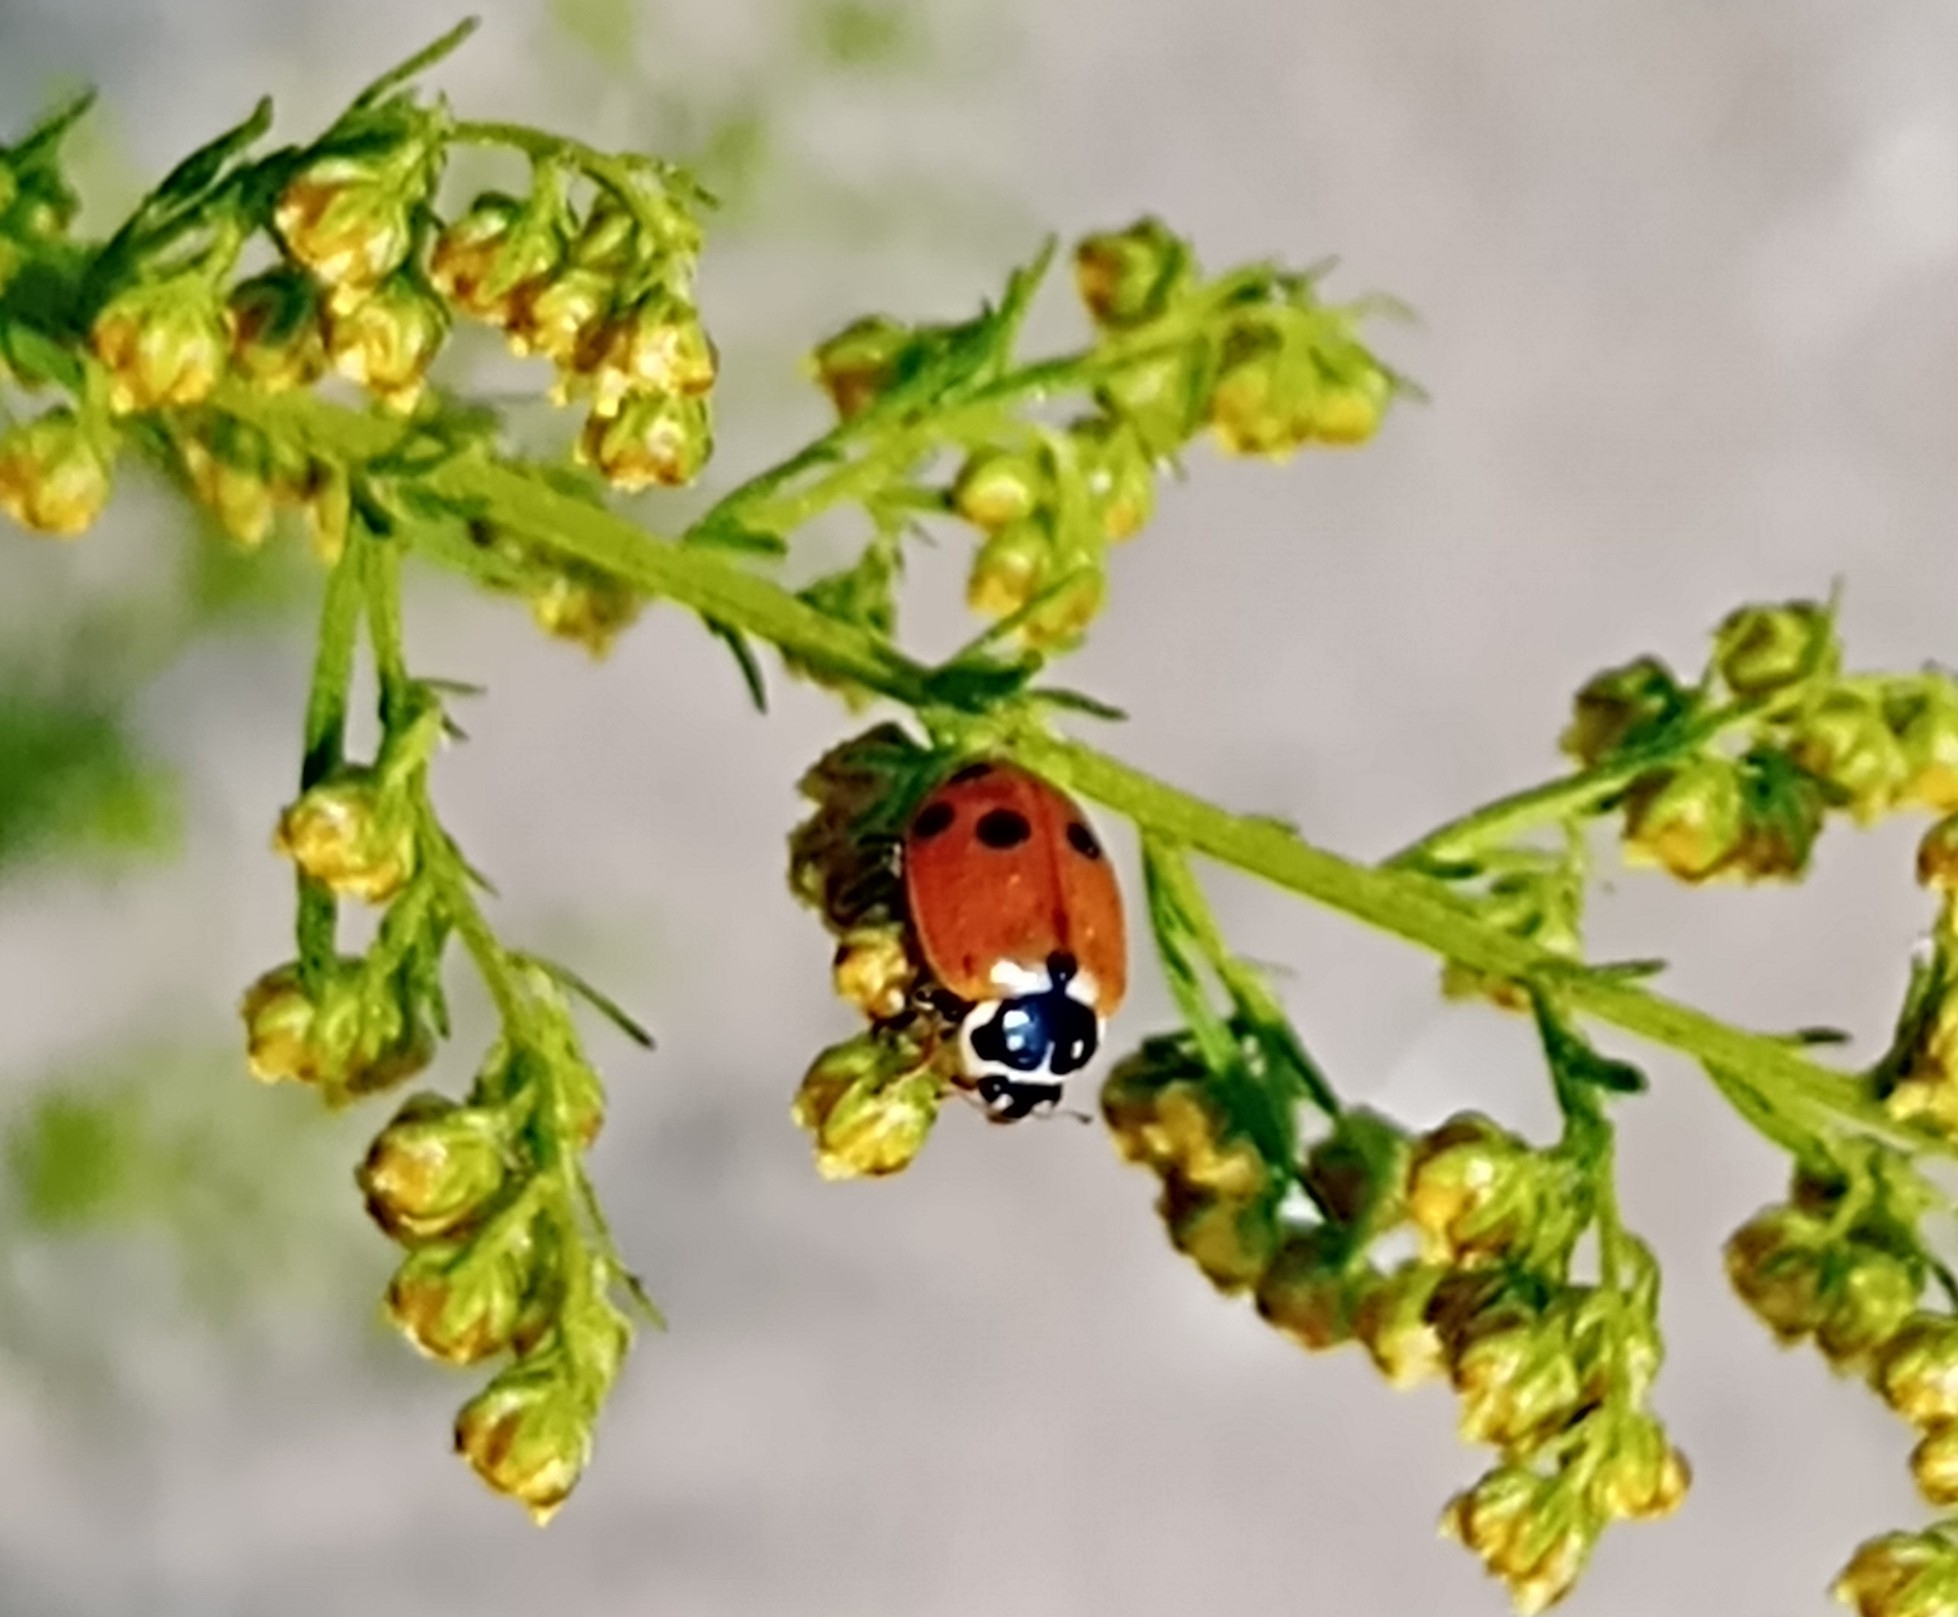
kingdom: Animalia
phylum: Arthropoda
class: Insecta
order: Coleoptera
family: Coccinellidae
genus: Hippodamia
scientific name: Hippodamia variegata
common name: Ladybird beetle
